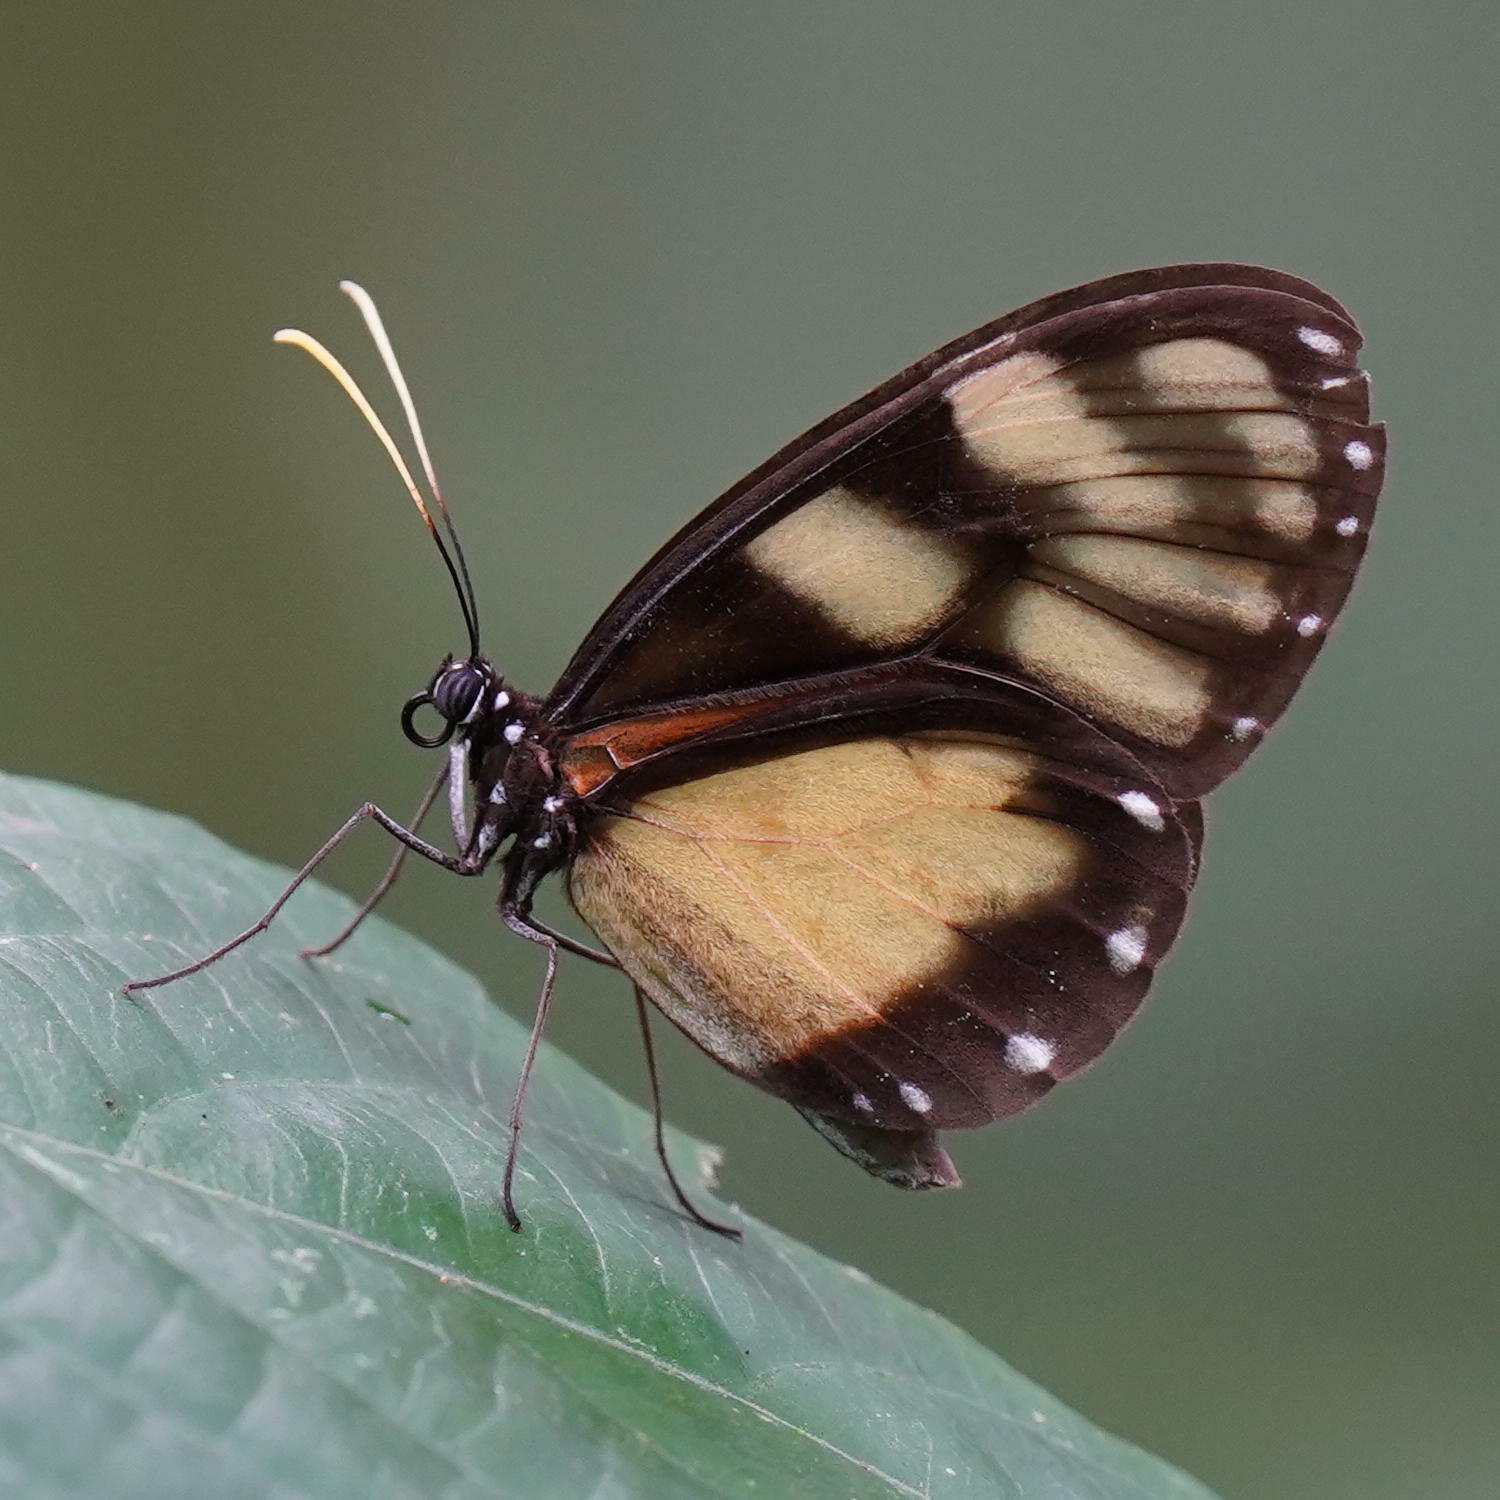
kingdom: Animalia
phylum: Arthropoda
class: Insecta
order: Lepidoptera
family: Nymphalidae
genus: Godyris
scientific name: Godyris zavaleta
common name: Zavaleta glasswing
